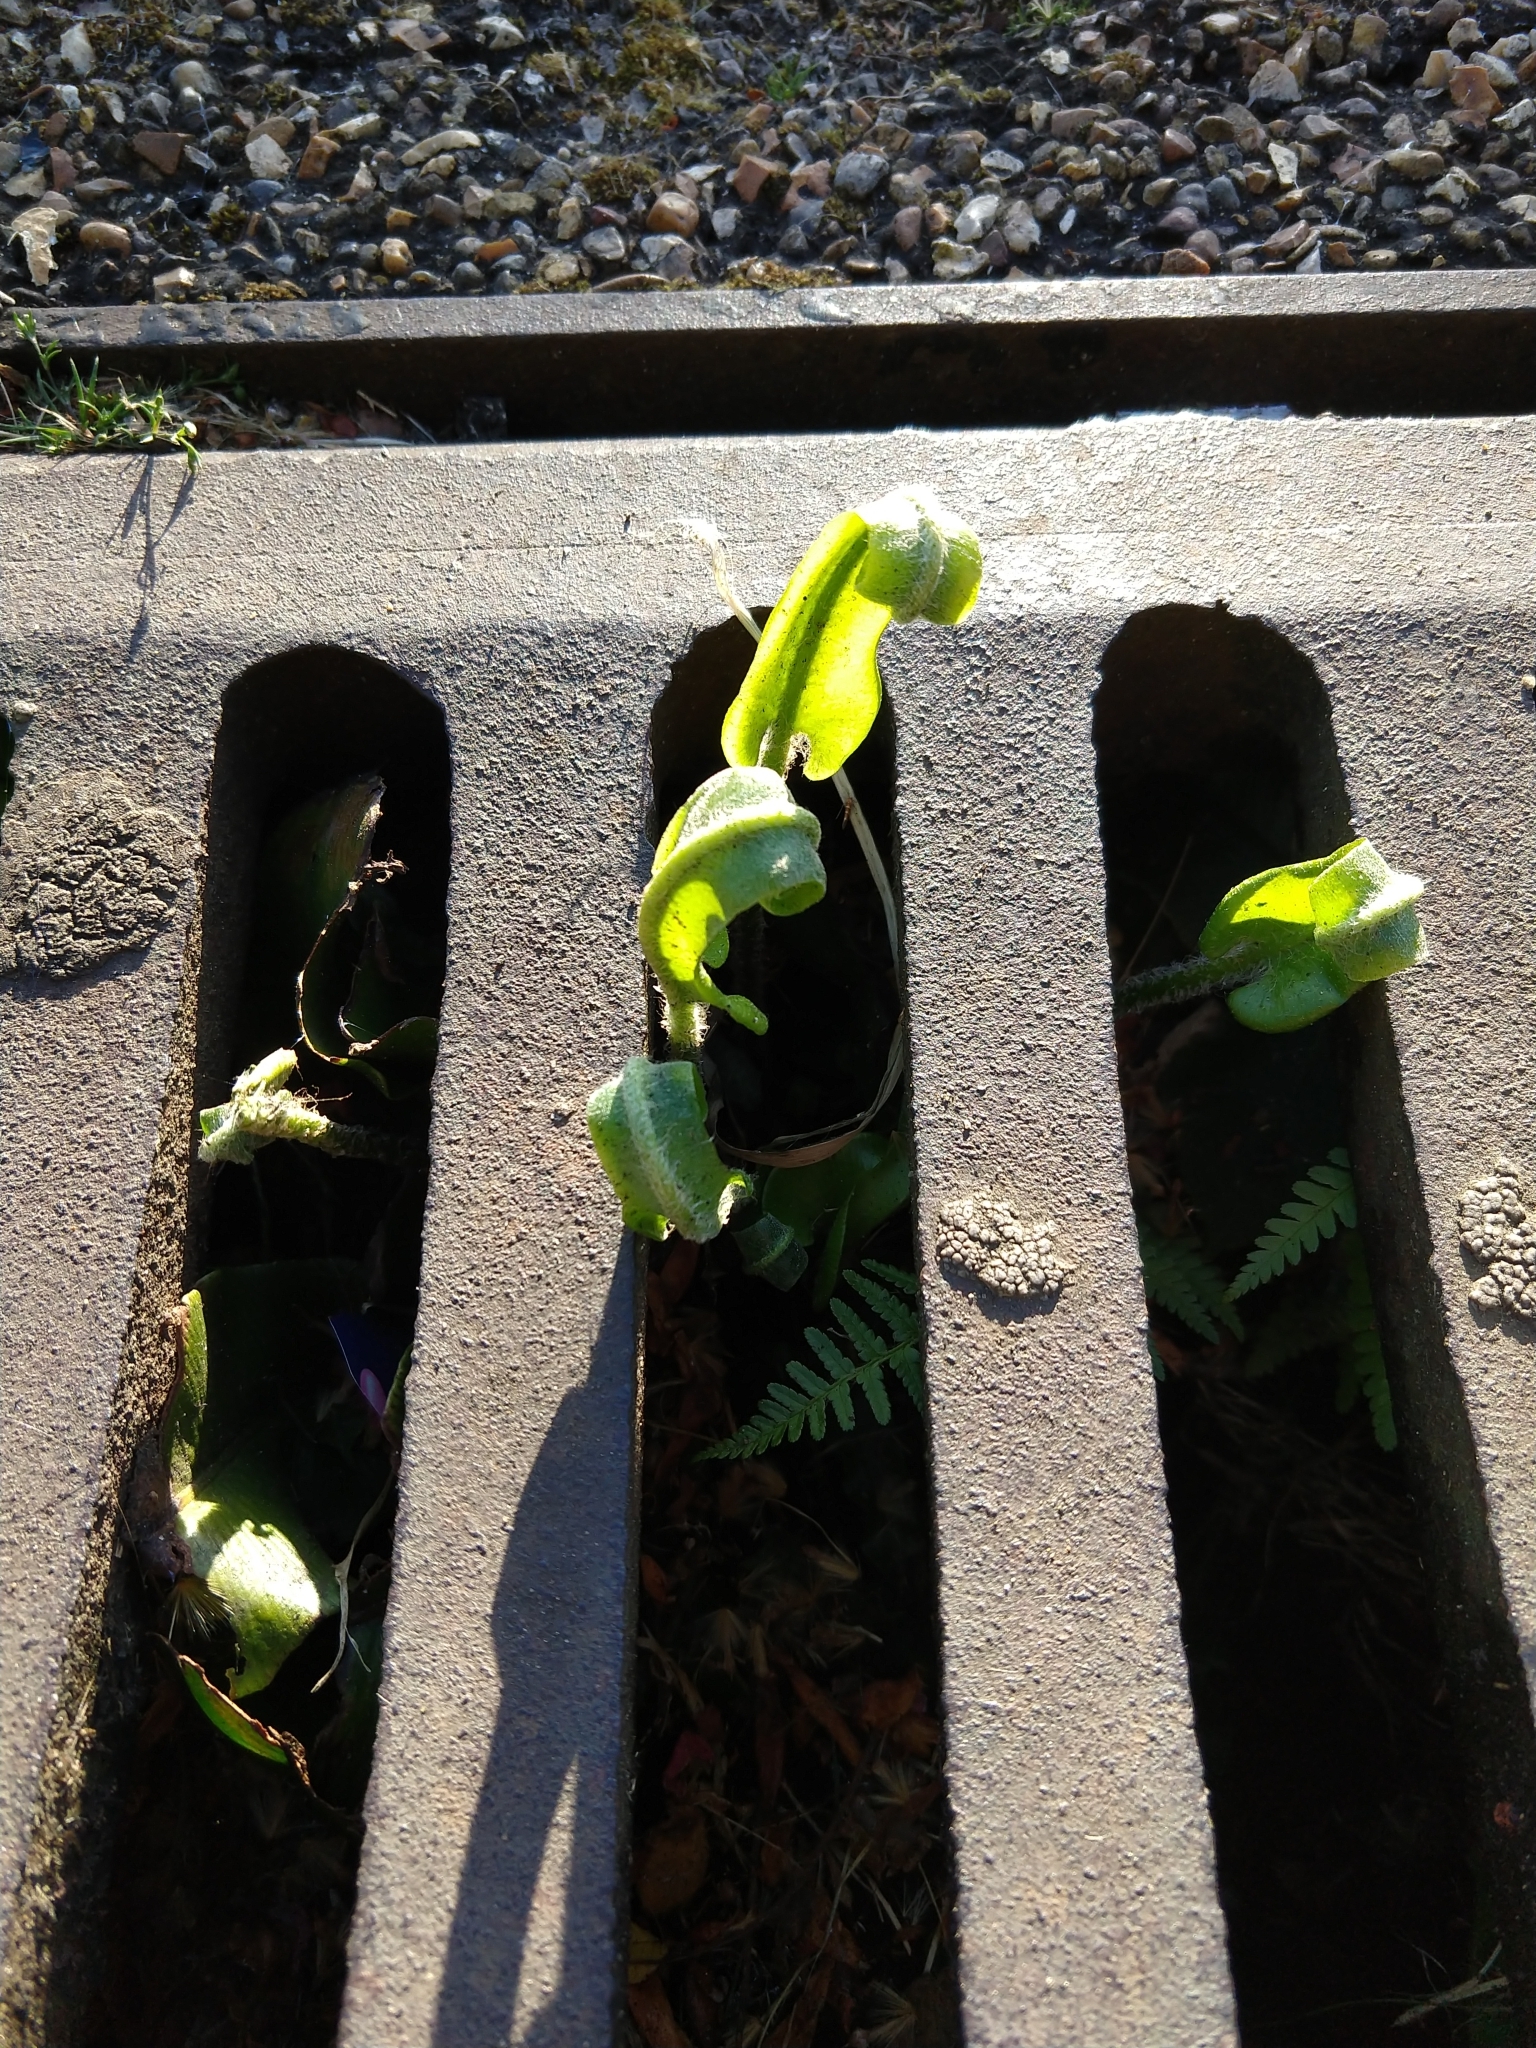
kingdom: Plantae
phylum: Tracheophyta
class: Polypodiopsida
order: Polypodiales
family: Aspleniaceae
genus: Asplenium
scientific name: Asplenium scolopendrium
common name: Hart's-tongue fern
